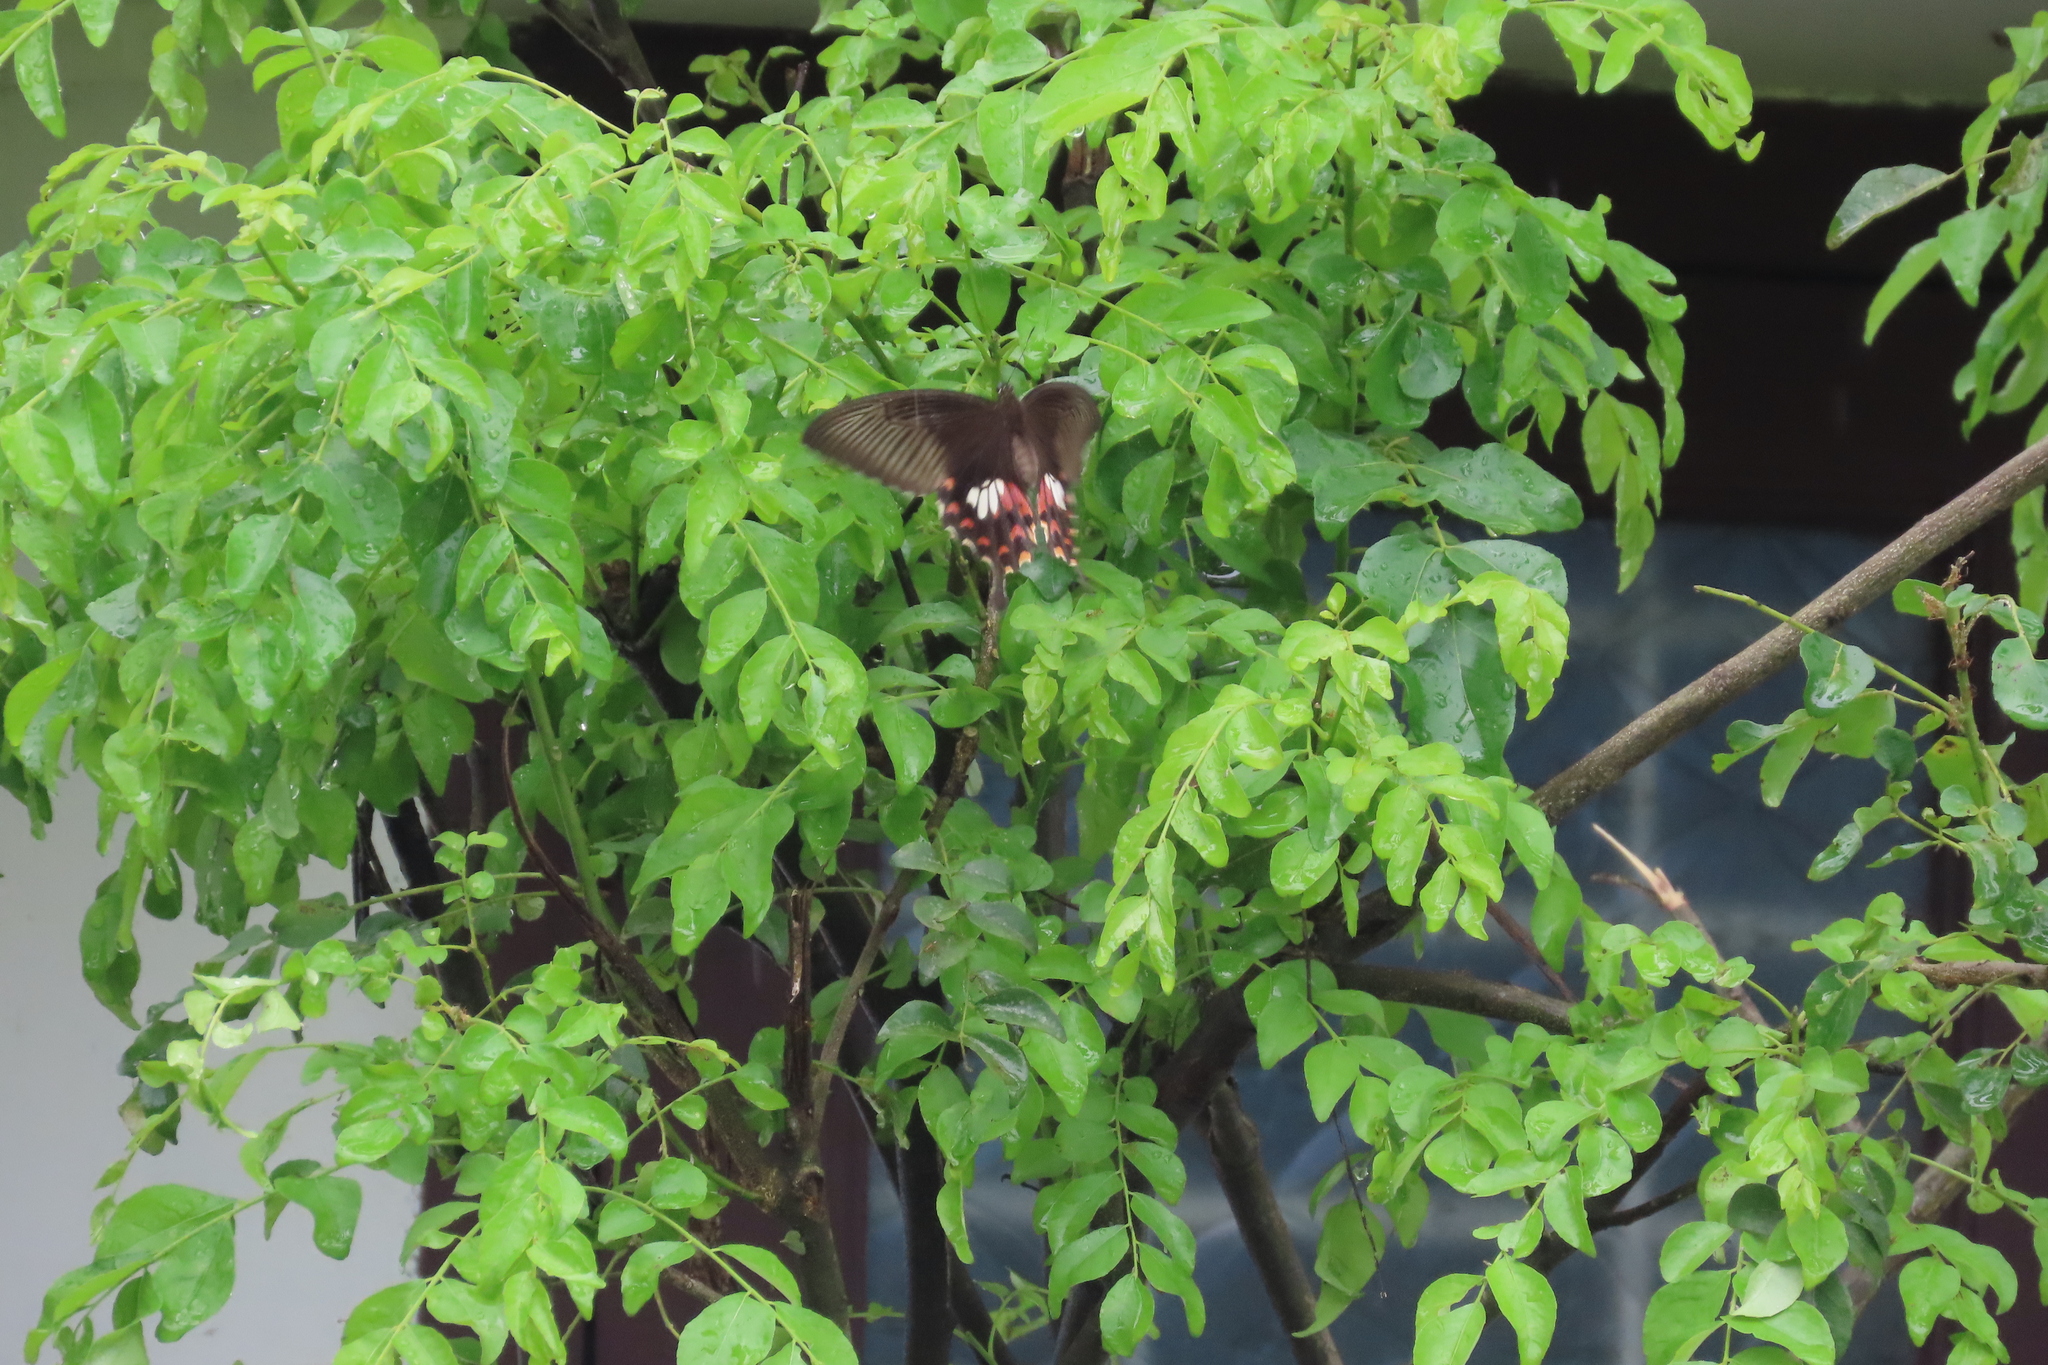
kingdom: Animalia
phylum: Arthropoda
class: Insecta
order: Lepidoptera
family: Papilionidae
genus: Papilio
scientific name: Papilio polytes
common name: Common mormon
